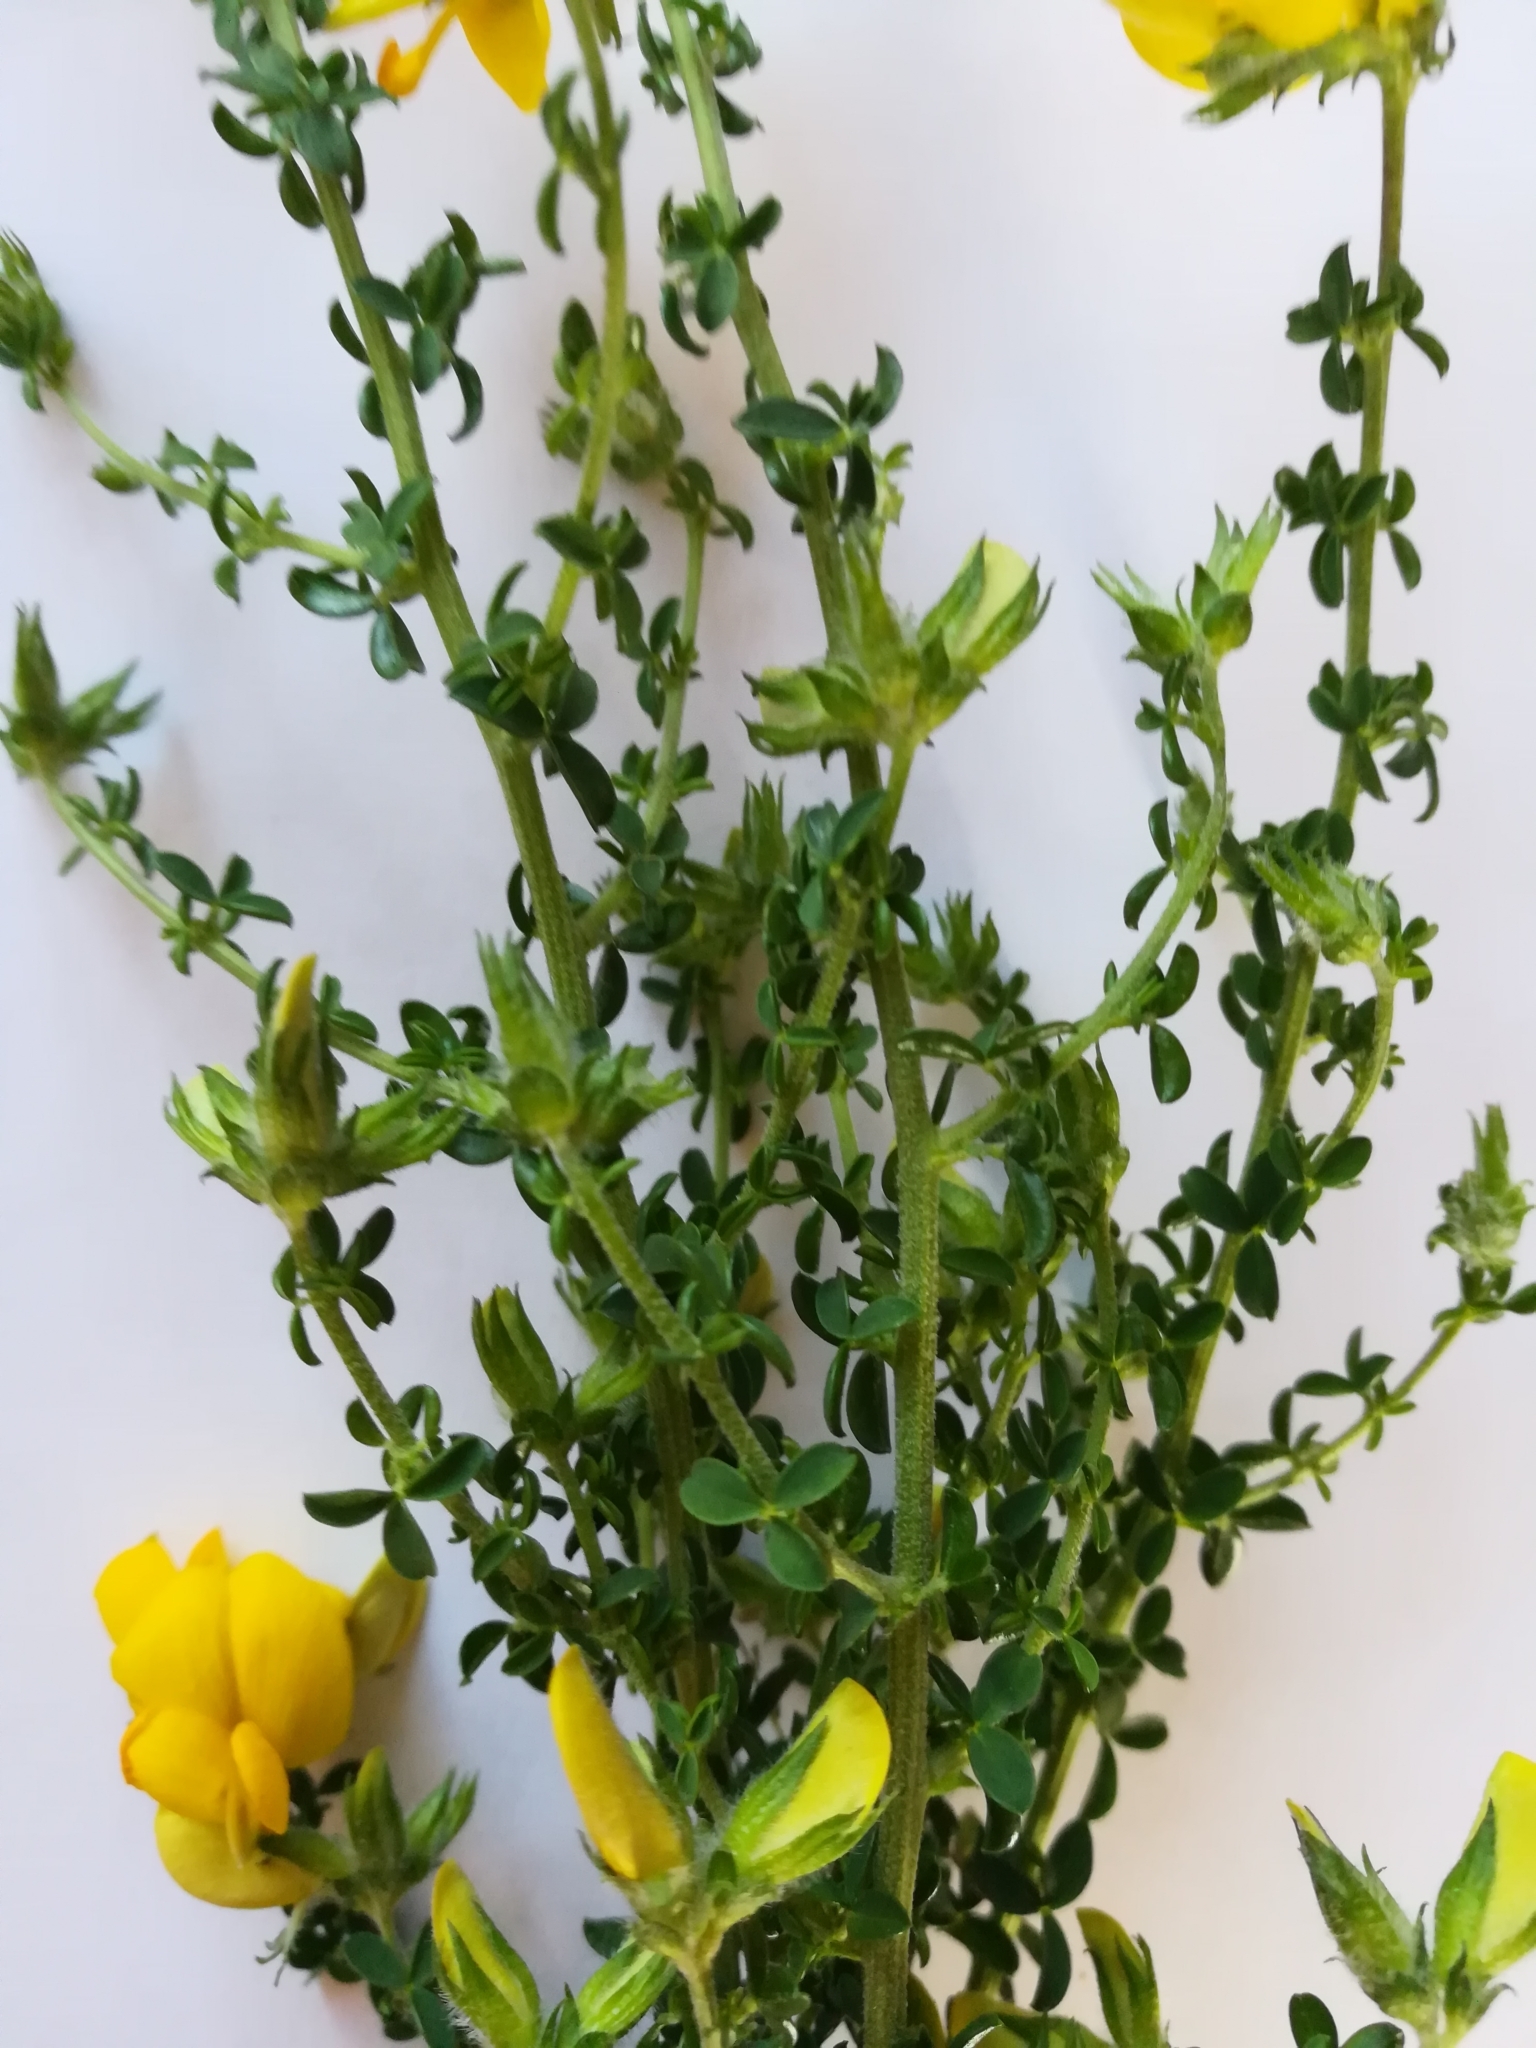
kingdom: Plantae
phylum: Tracheophyta
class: Magnoliopsida
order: Fabales
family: Fabaceae
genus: Adenocarpus
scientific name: Adenocarpus telonensis
